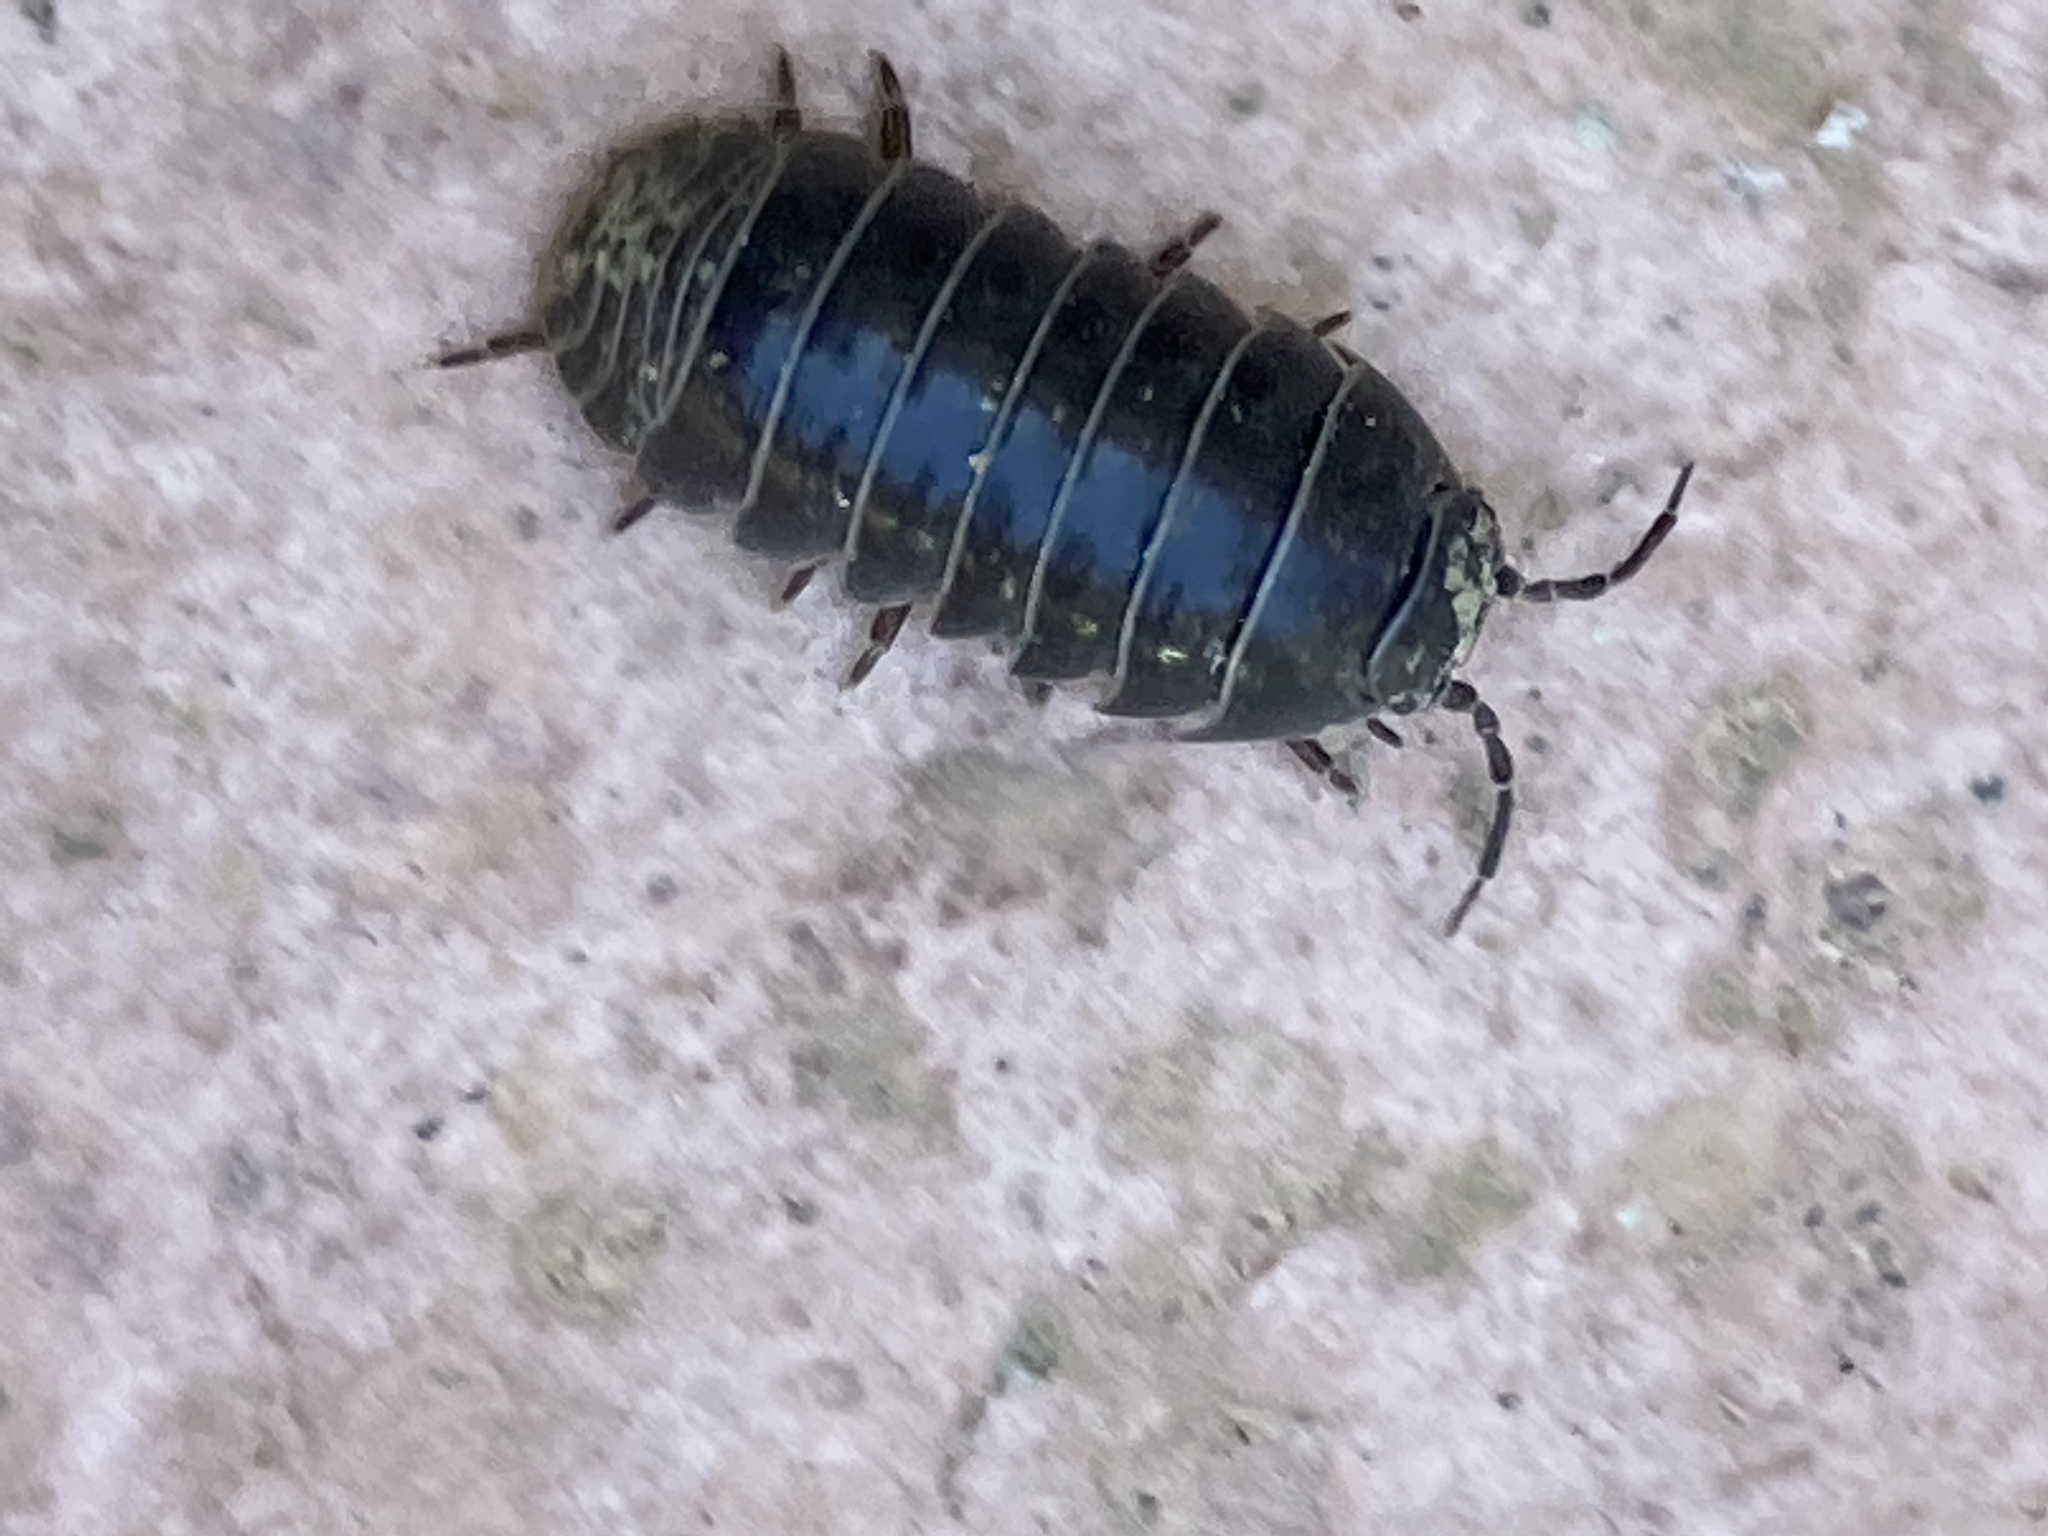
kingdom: Animalia
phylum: Arthropoda
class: Malacostraca
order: Isopoda
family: Armadillidiidae
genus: Armadillidium
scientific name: Armadillidium vulgare
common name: Common pill woodlouse
